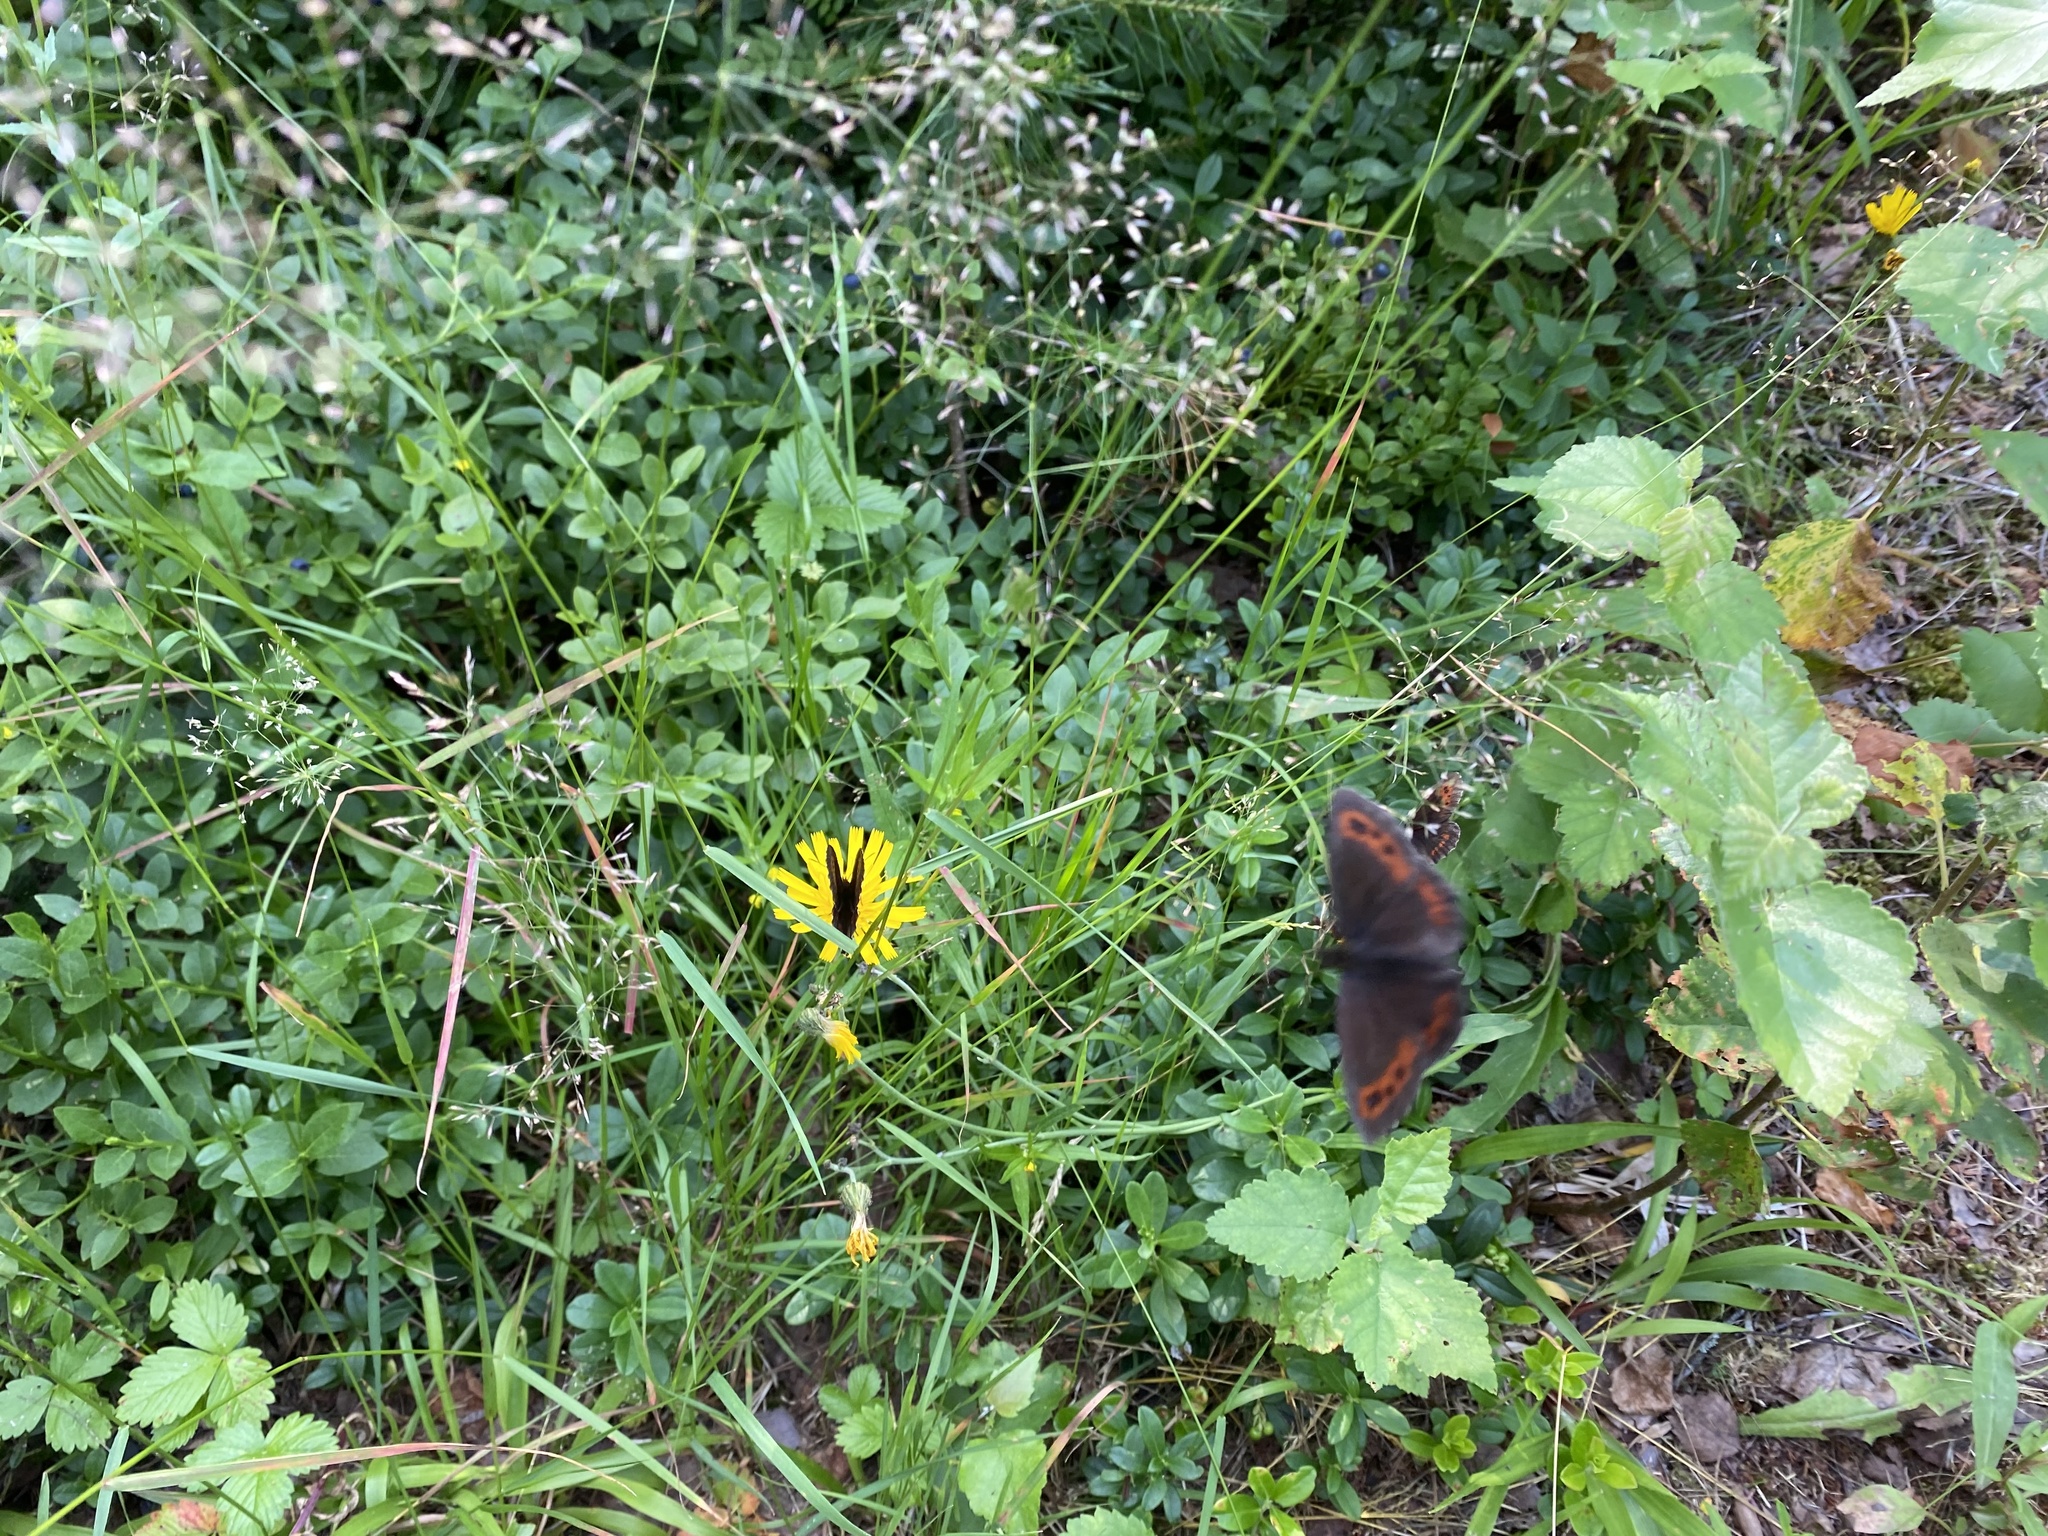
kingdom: Animalia
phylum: Arthropoda
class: Insecta
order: Lepidoptera
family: Nymphalidae
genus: Erebia
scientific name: Erebia ligea
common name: Arran brown
